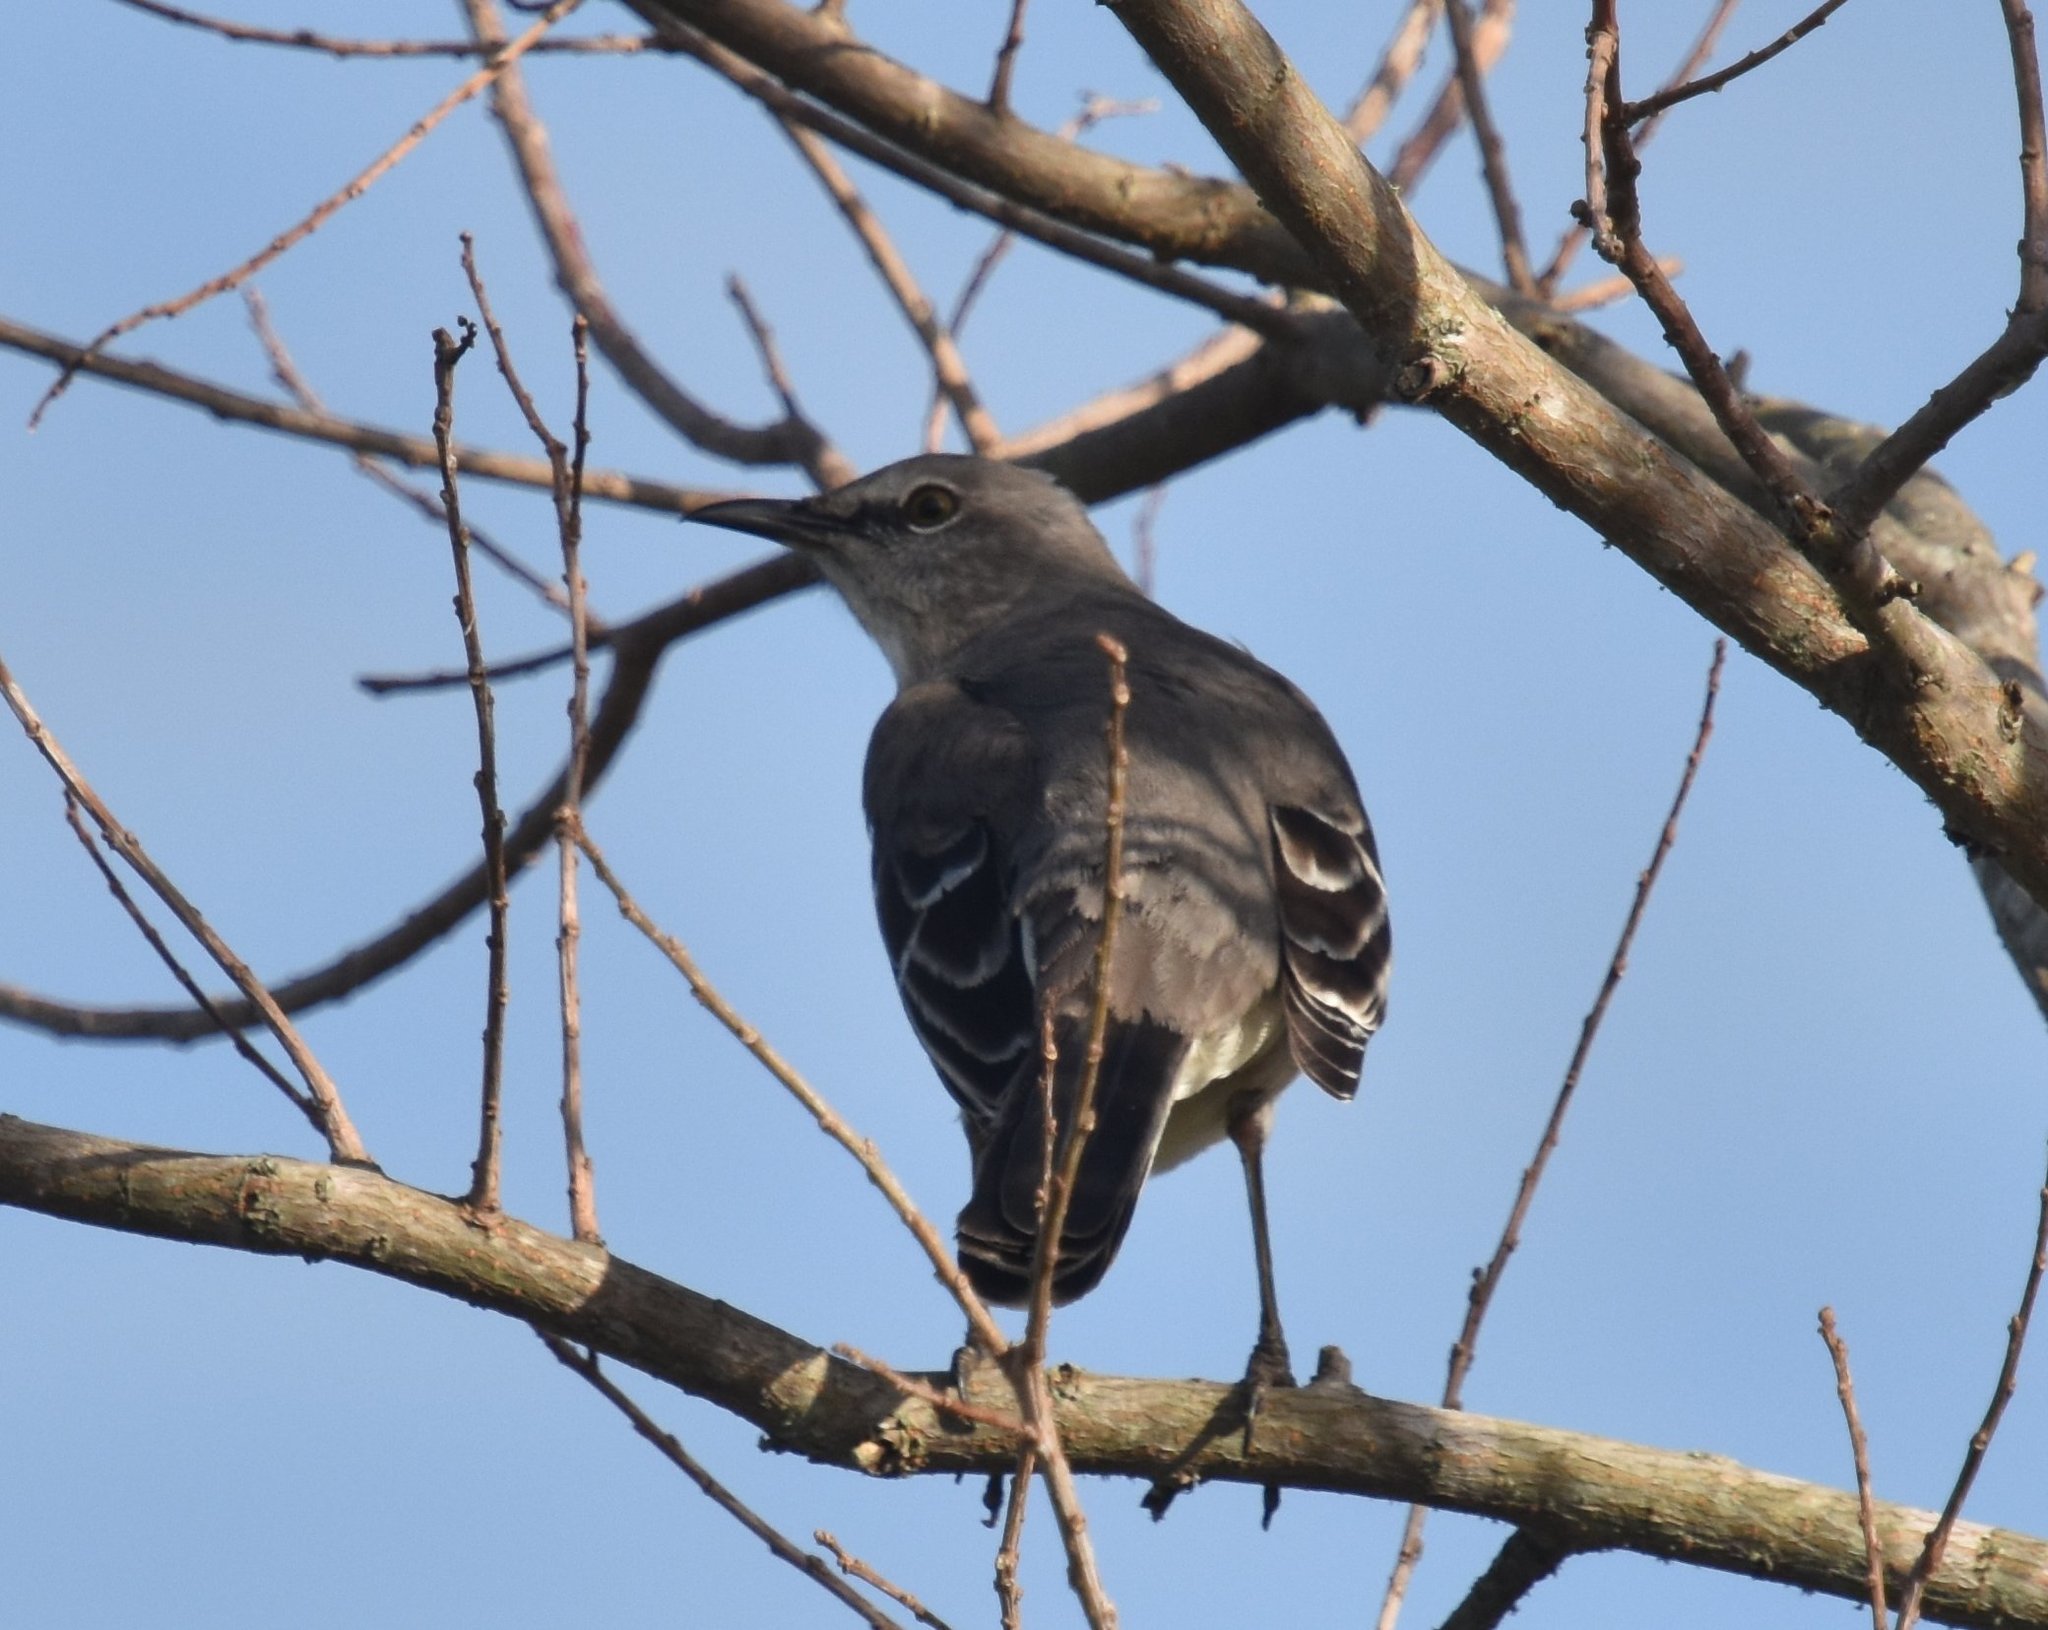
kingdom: Animalia
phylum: Chordata
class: Aves
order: Passeriformes
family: Mimidae
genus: Mimus
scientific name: Mimus polyglottos
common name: Northern mockingbird
